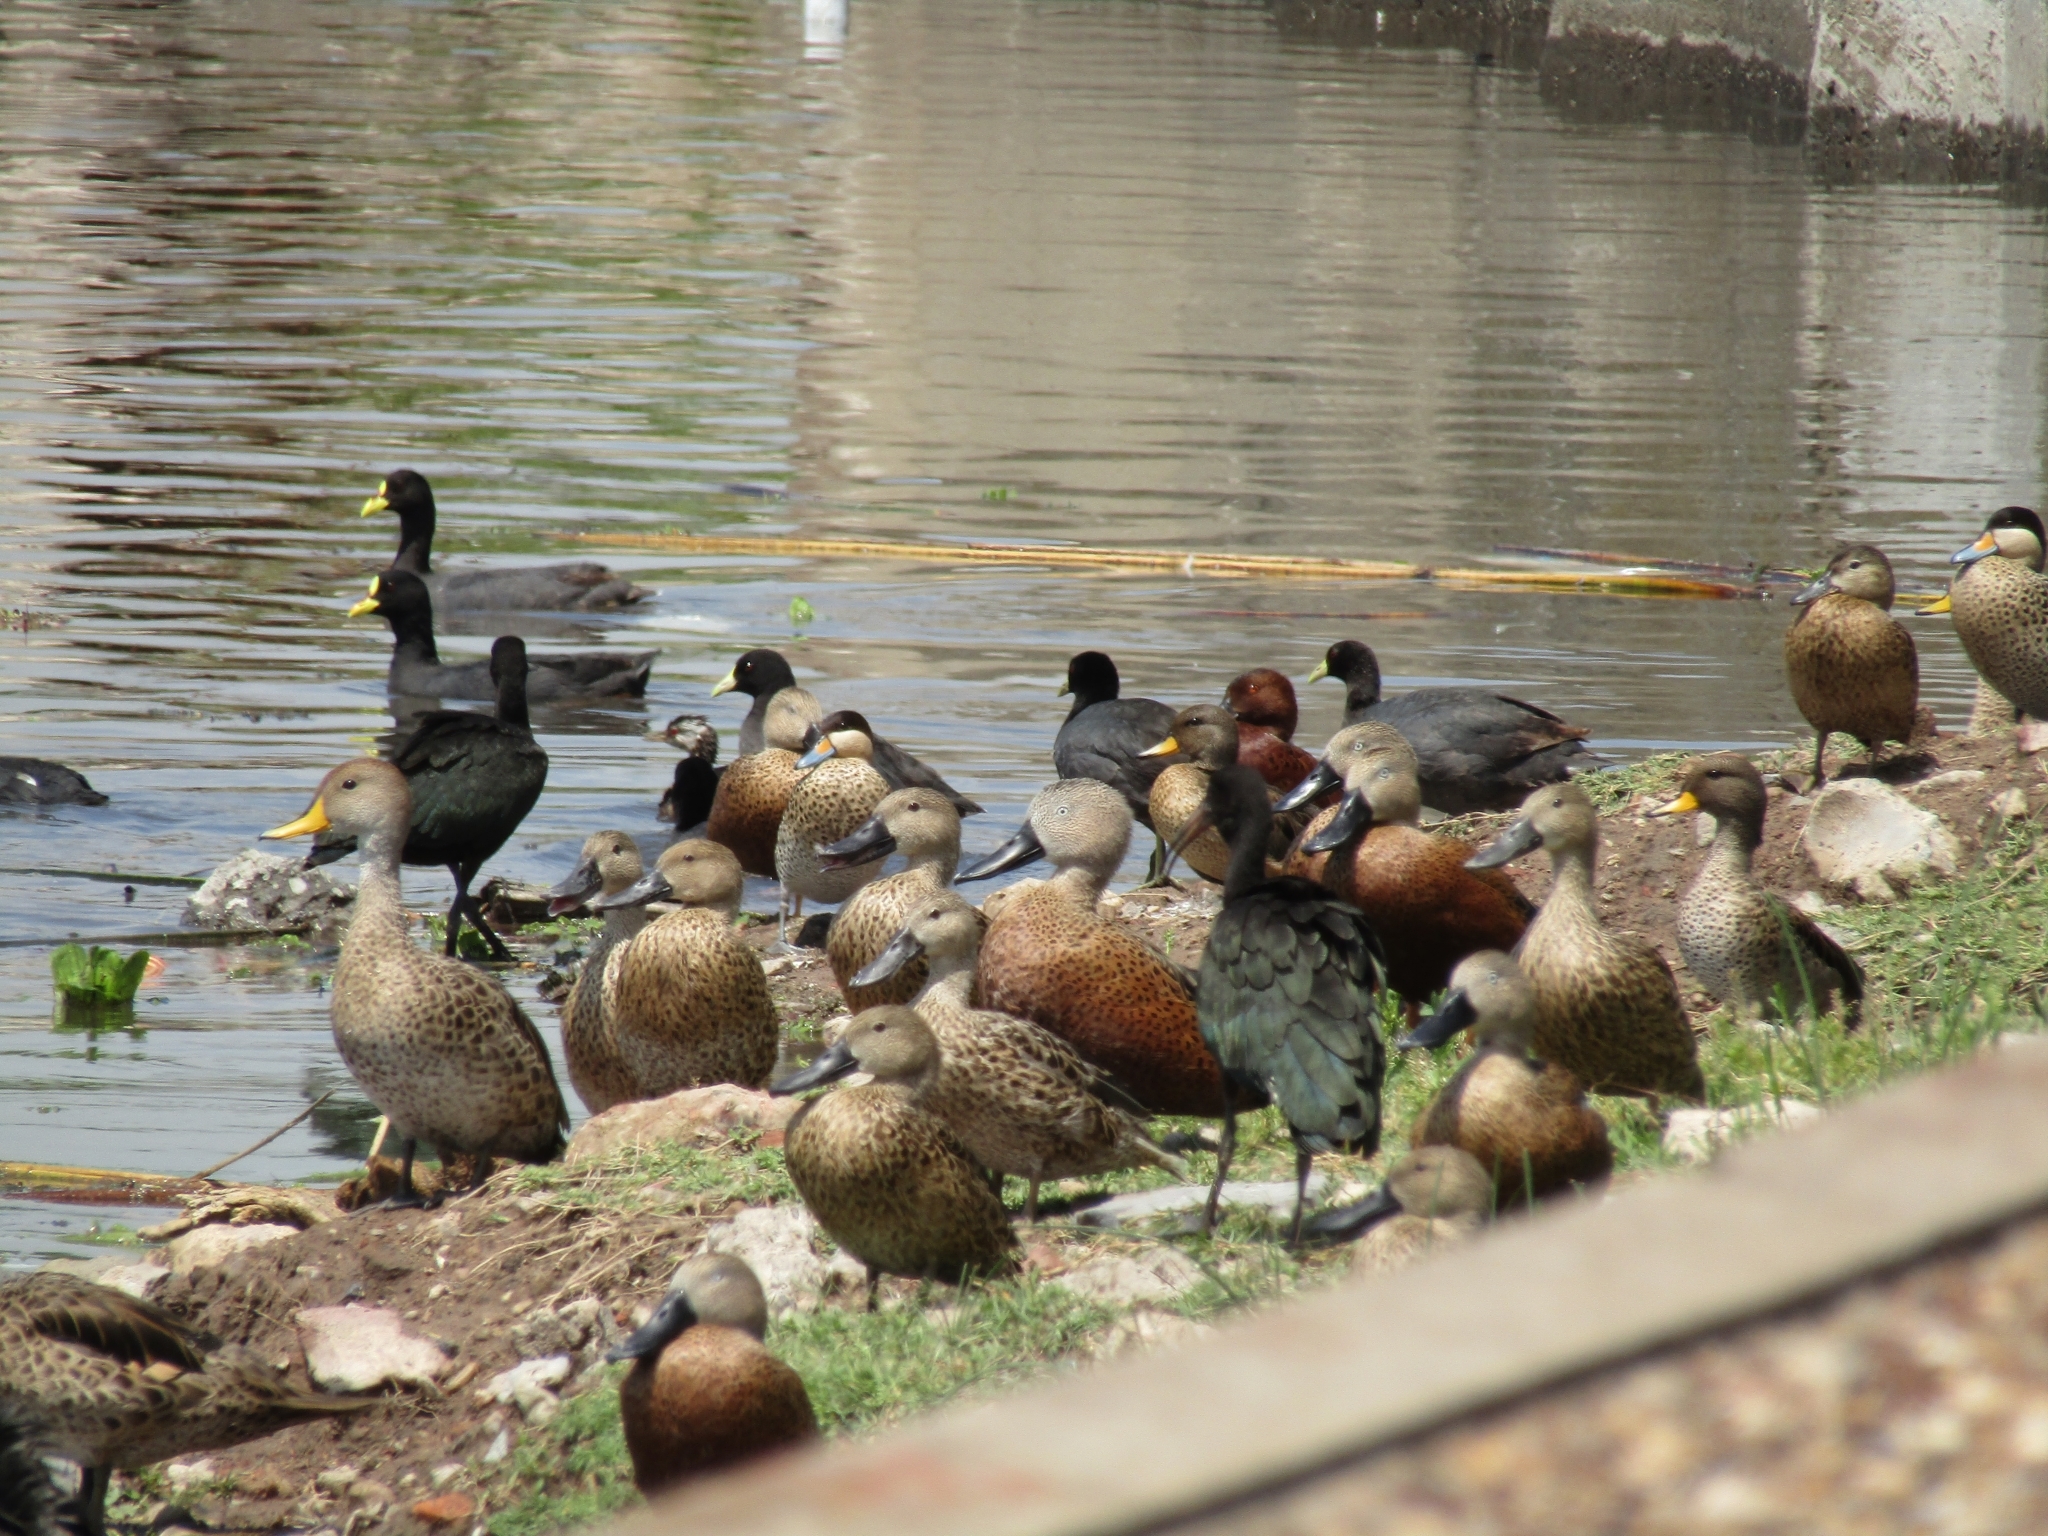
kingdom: Animalia
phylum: Chordata
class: Aves
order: Anseriformes
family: Anatidae
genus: Spatula
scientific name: Spatula cyanoptera
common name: Cinnamon teal
